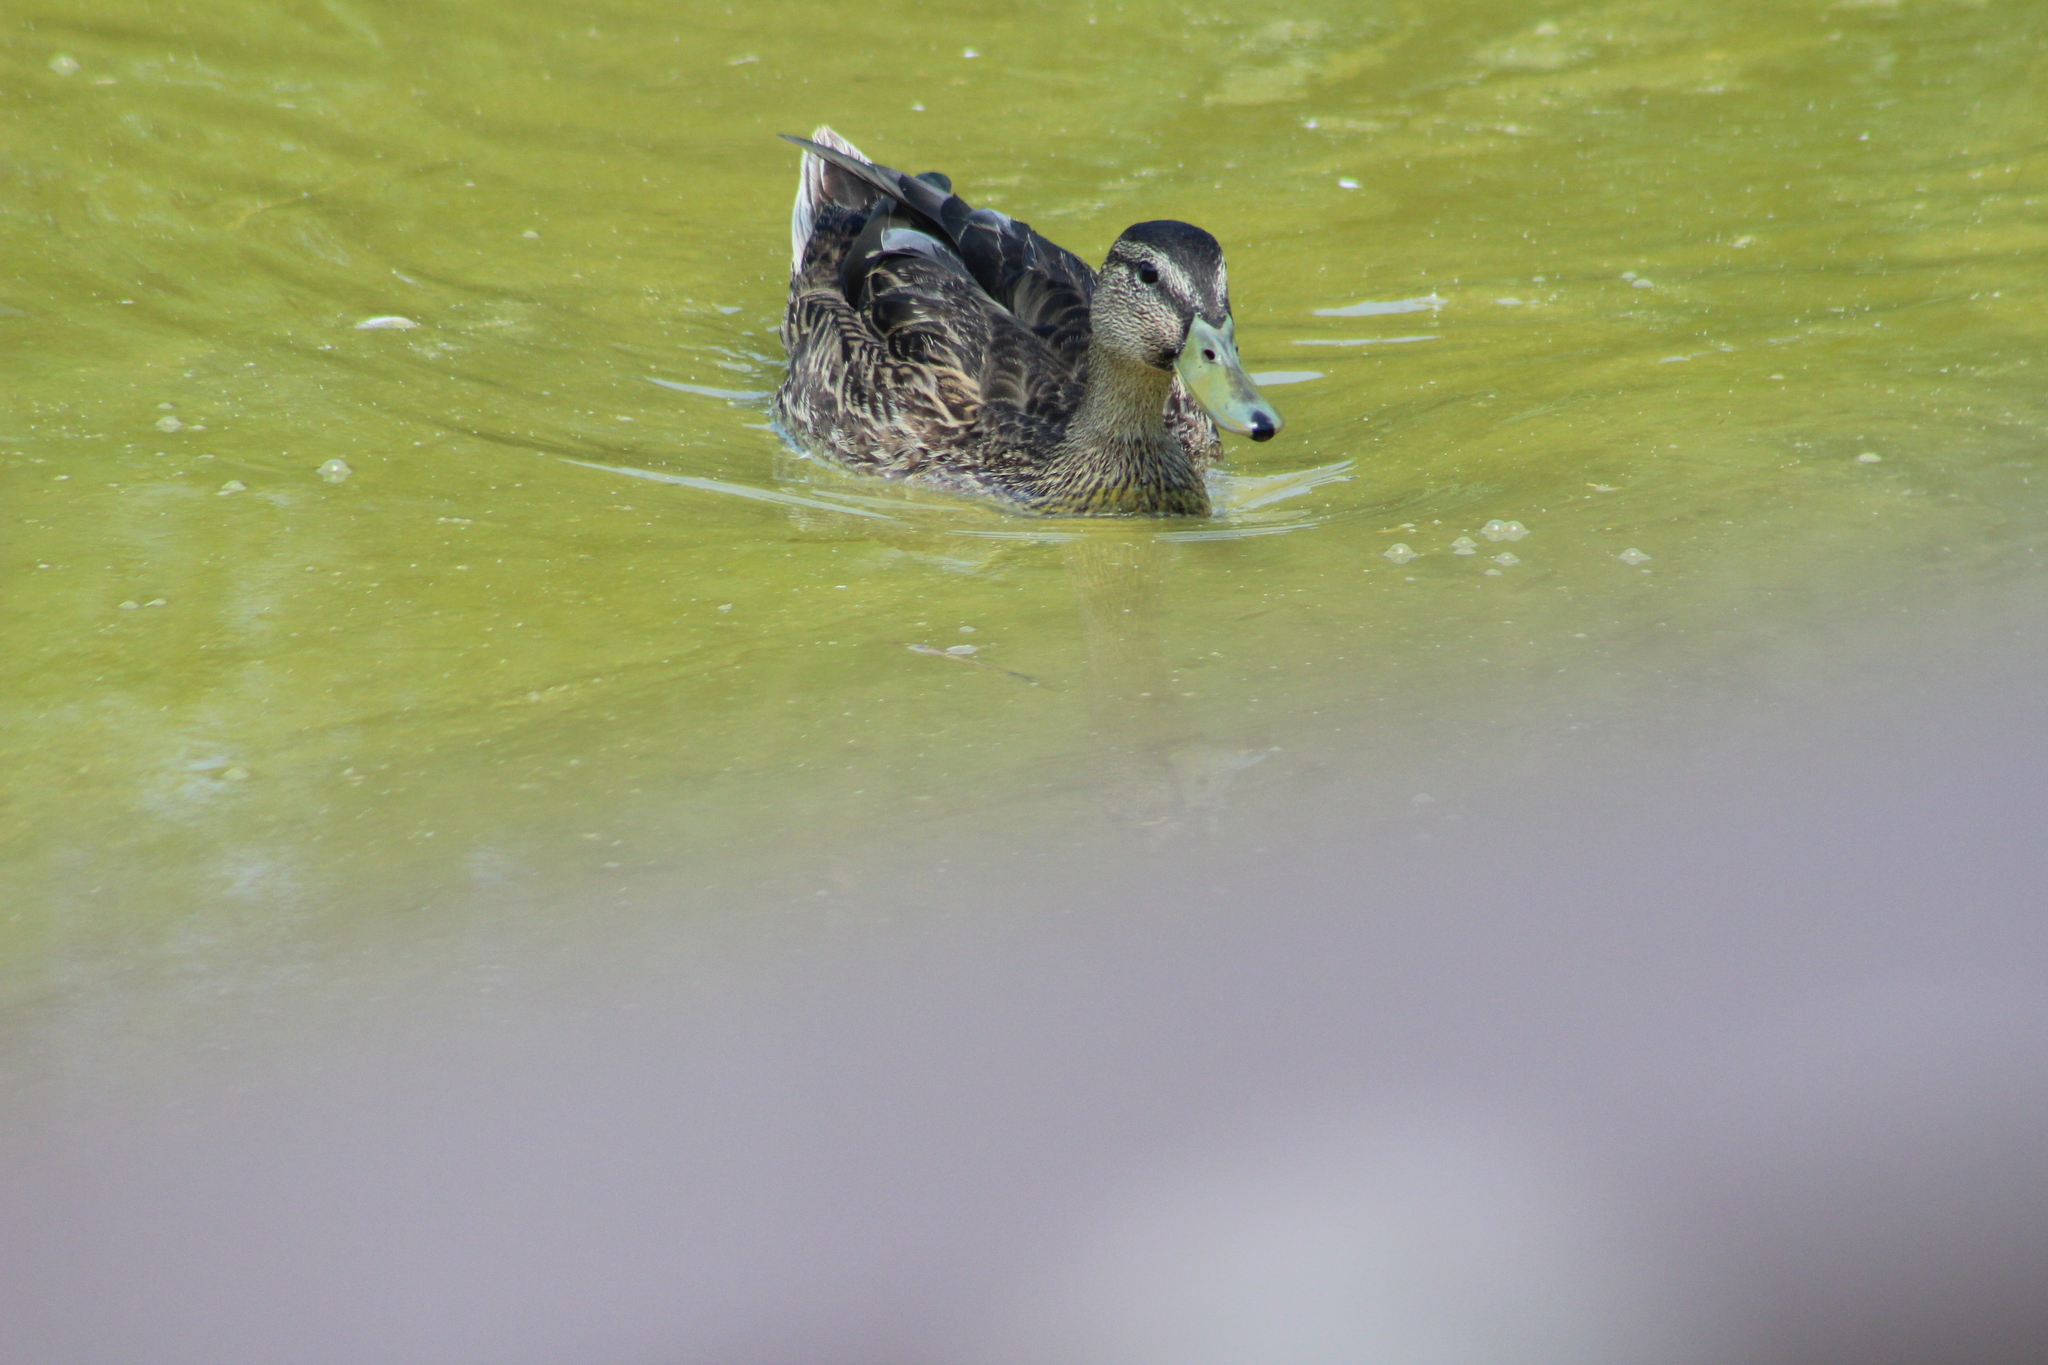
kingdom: Animalia
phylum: Chordata
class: Aves
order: Anseriformes
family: Anatidae
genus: Anas
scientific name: Anas platyrhynchos
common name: Mallard
